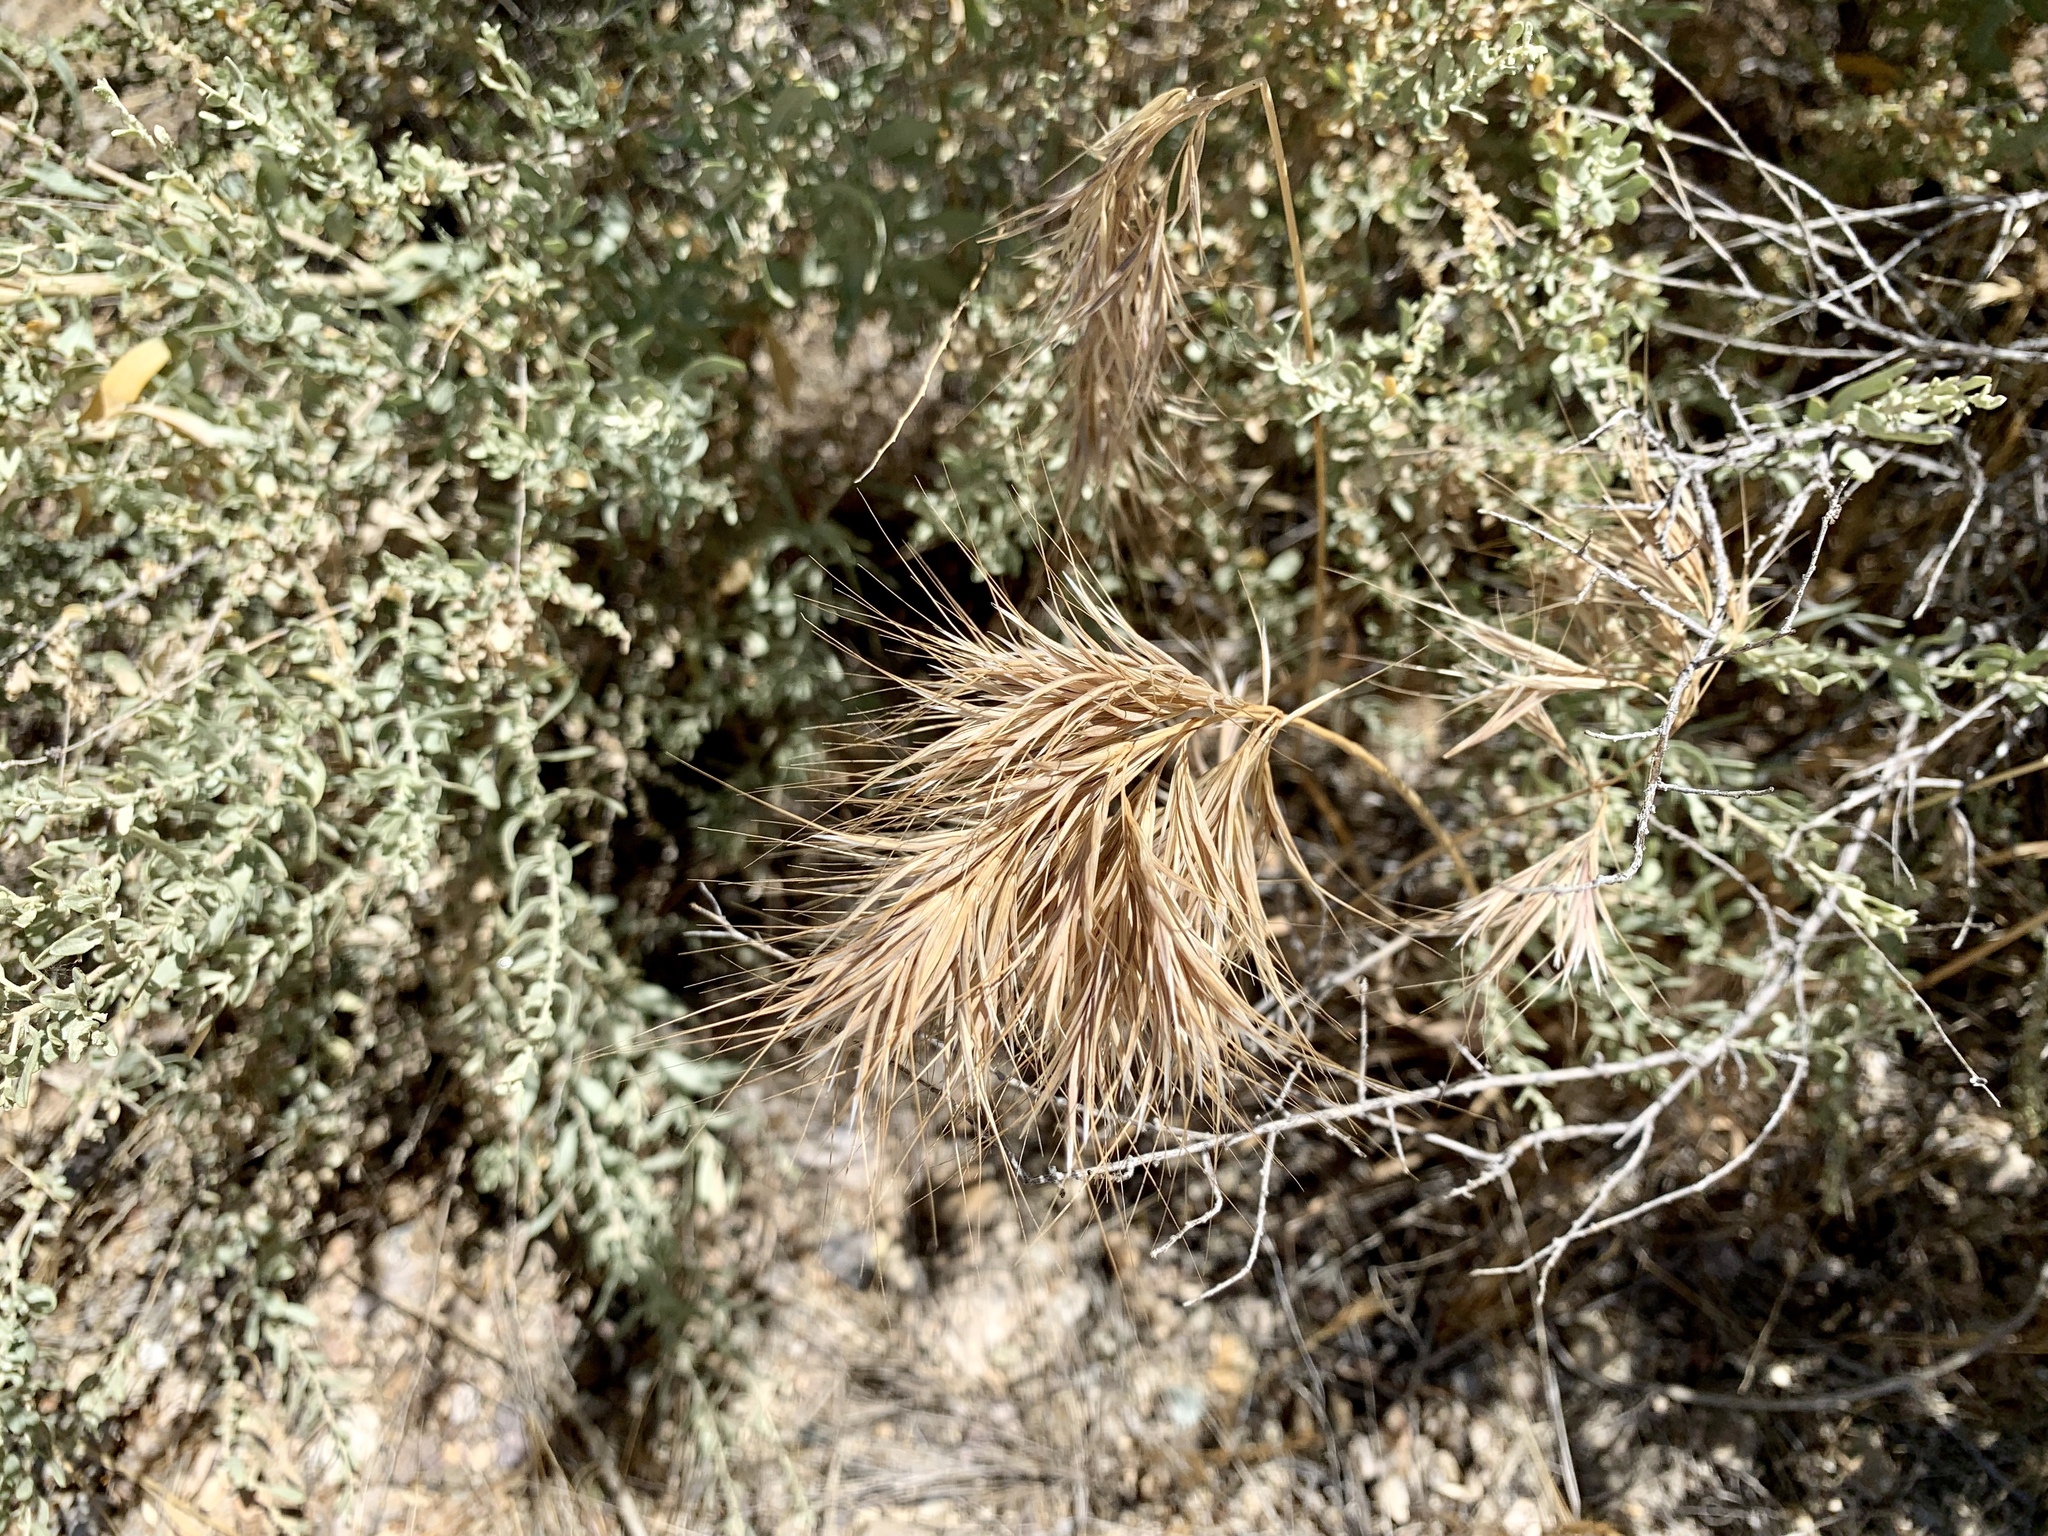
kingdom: Plantae
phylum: Tracheophyta
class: Liliopsida
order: Poales
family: Poaceae
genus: Bromus
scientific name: Bromus rubens
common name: Red brome
